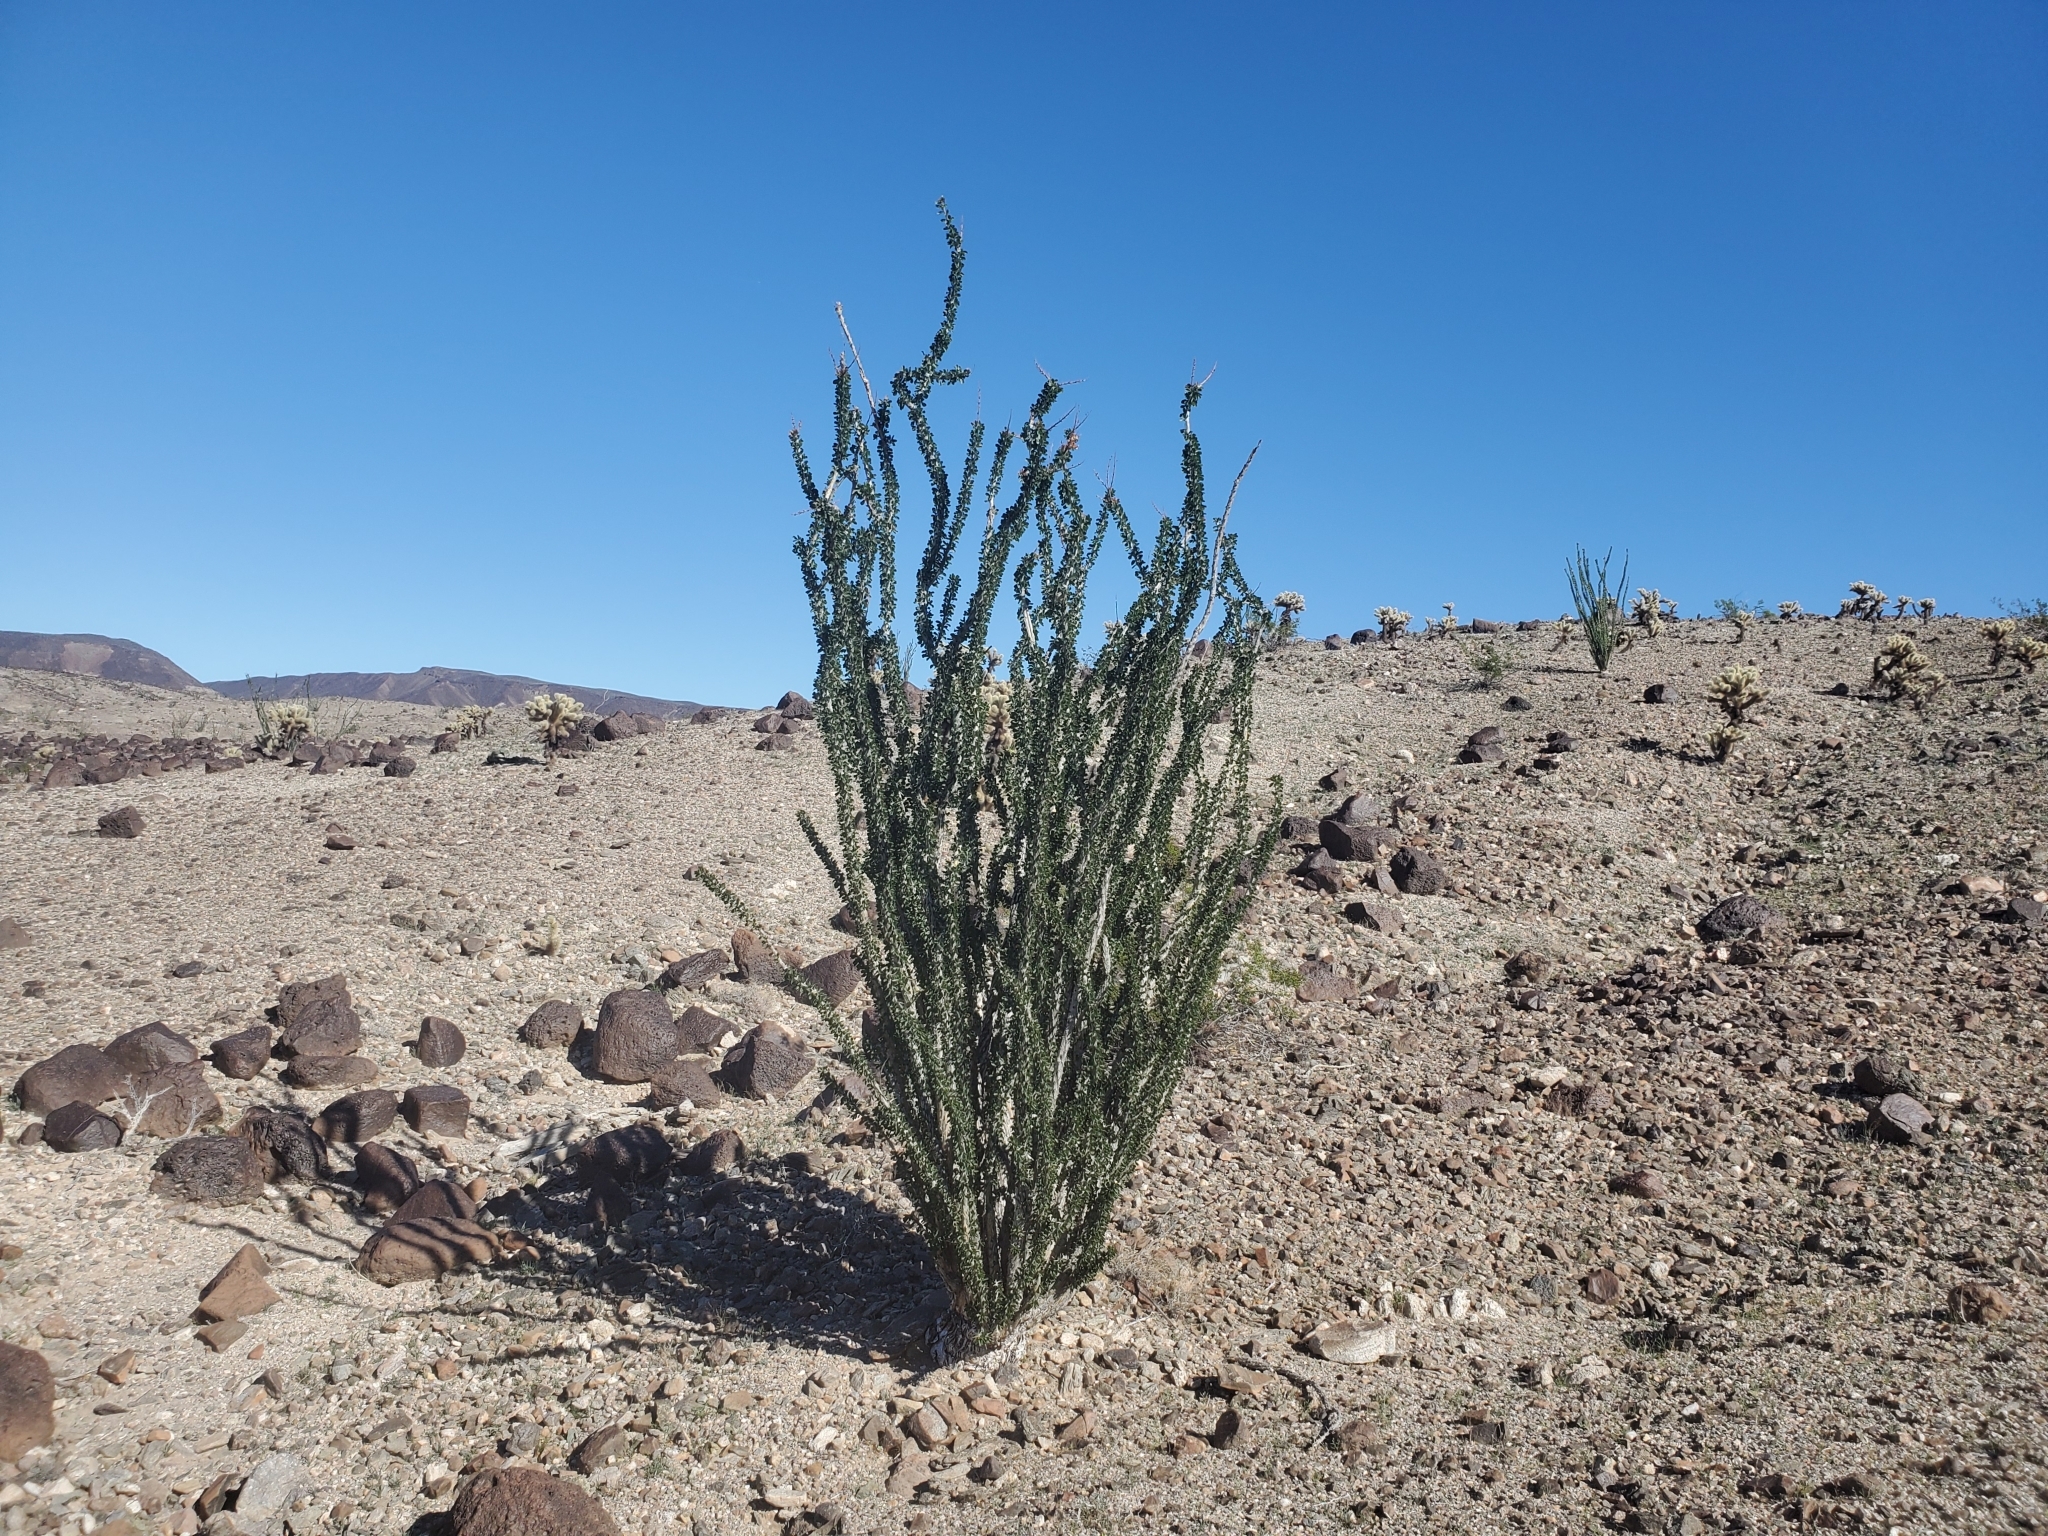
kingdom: Plantae
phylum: Tracheophyta
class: Magnoliopsida
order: Ericales
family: Fouquieriaceae
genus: Fouquieria
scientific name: Fouquieria splendens
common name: Vine-cactus
